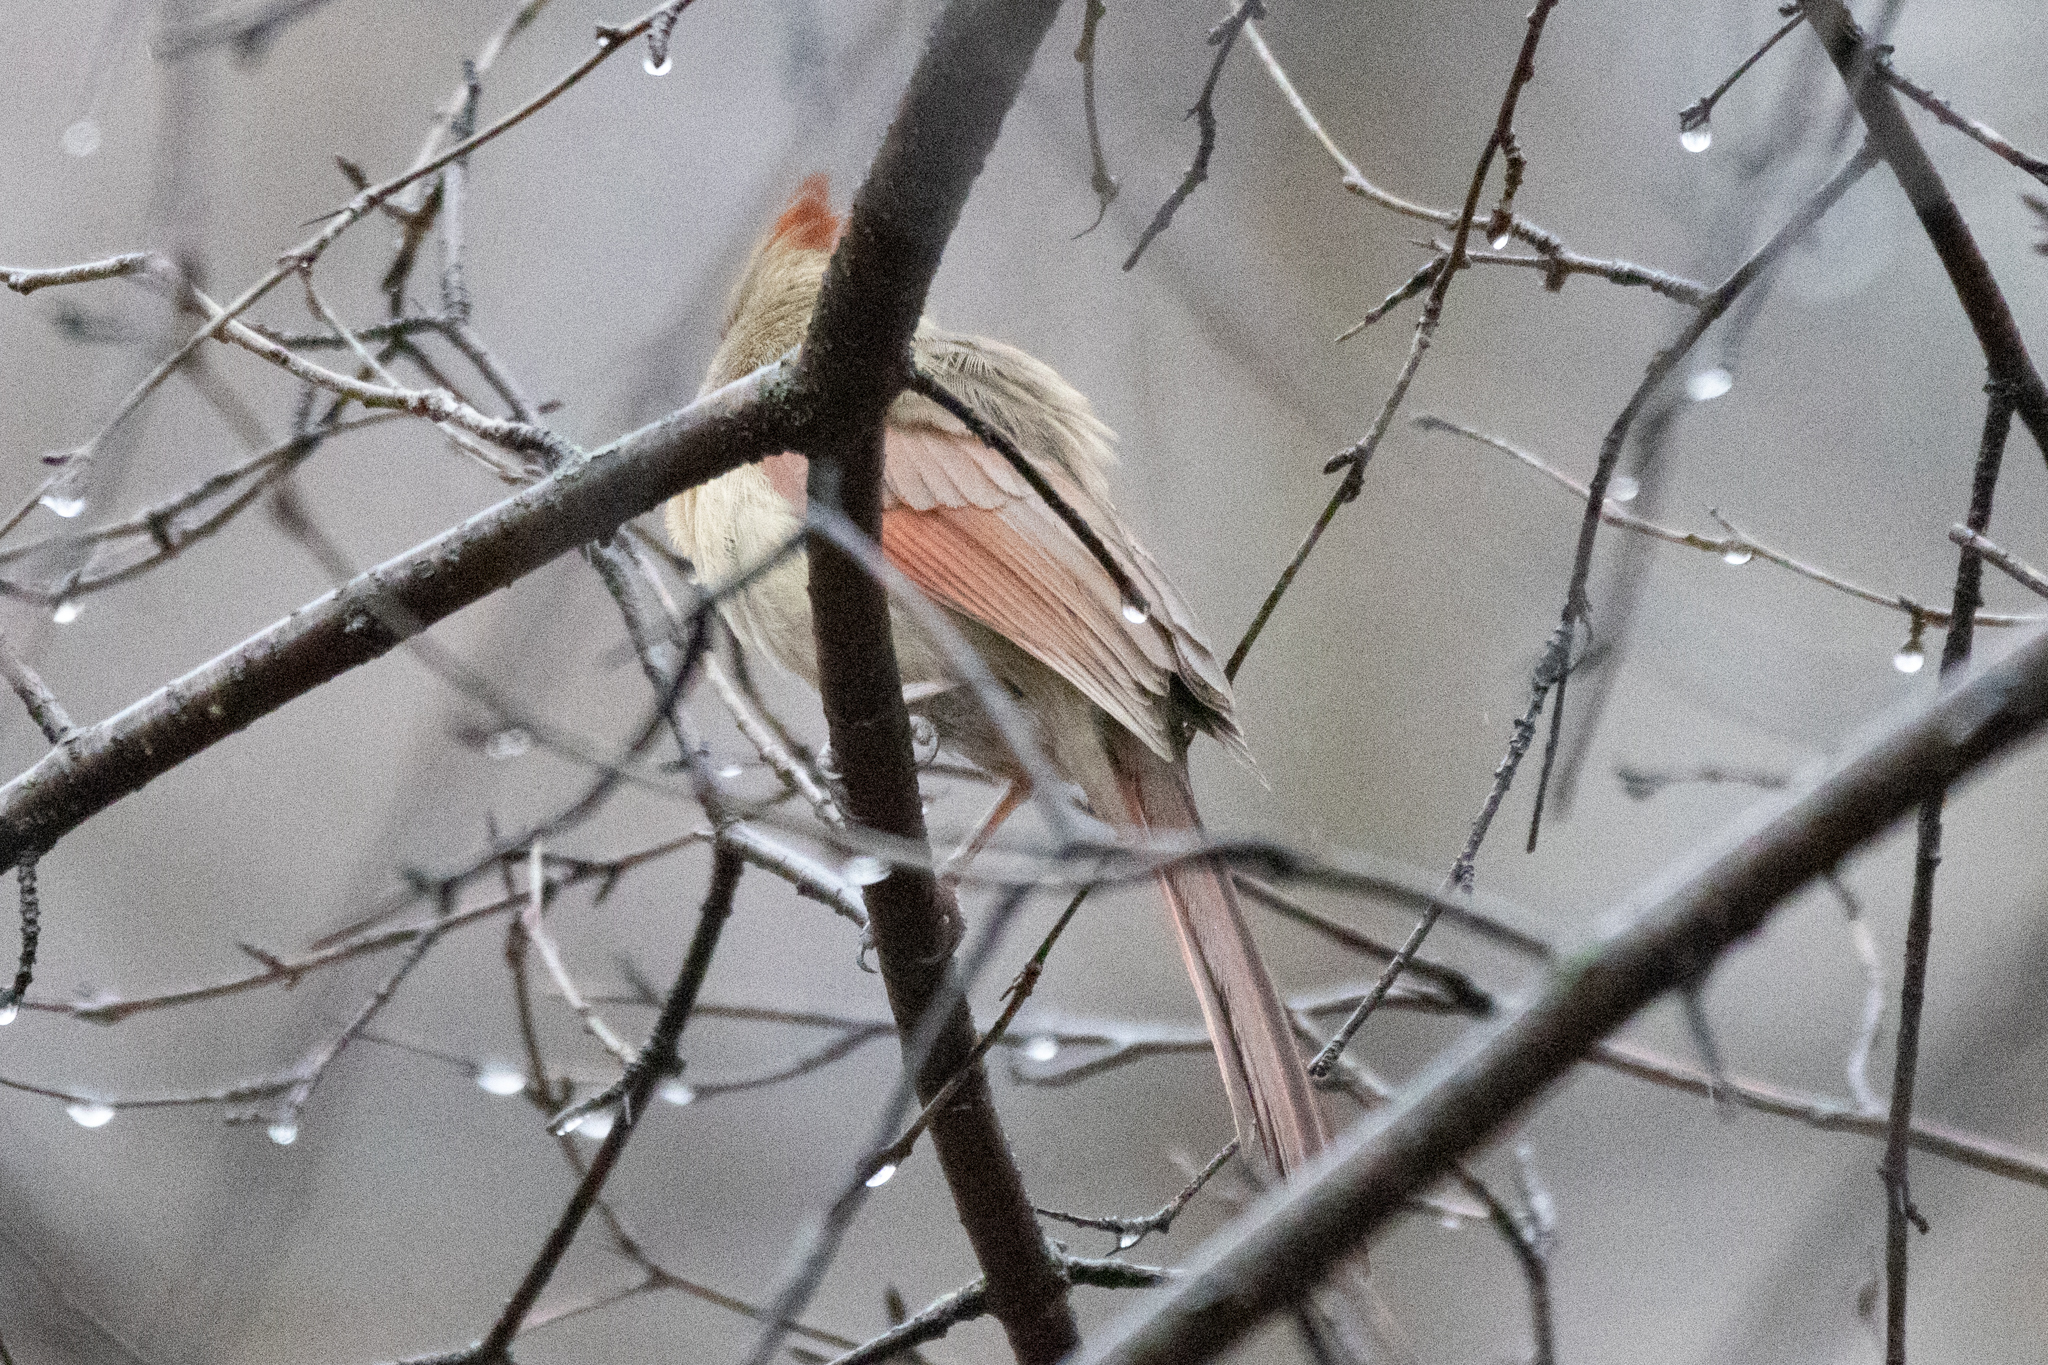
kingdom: Animalia
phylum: Chordata
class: Aves
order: Passeriformes
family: Cardinalidae
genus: Cardinalis
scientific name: Cardinalis cardinalis
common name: Northern cardinal
